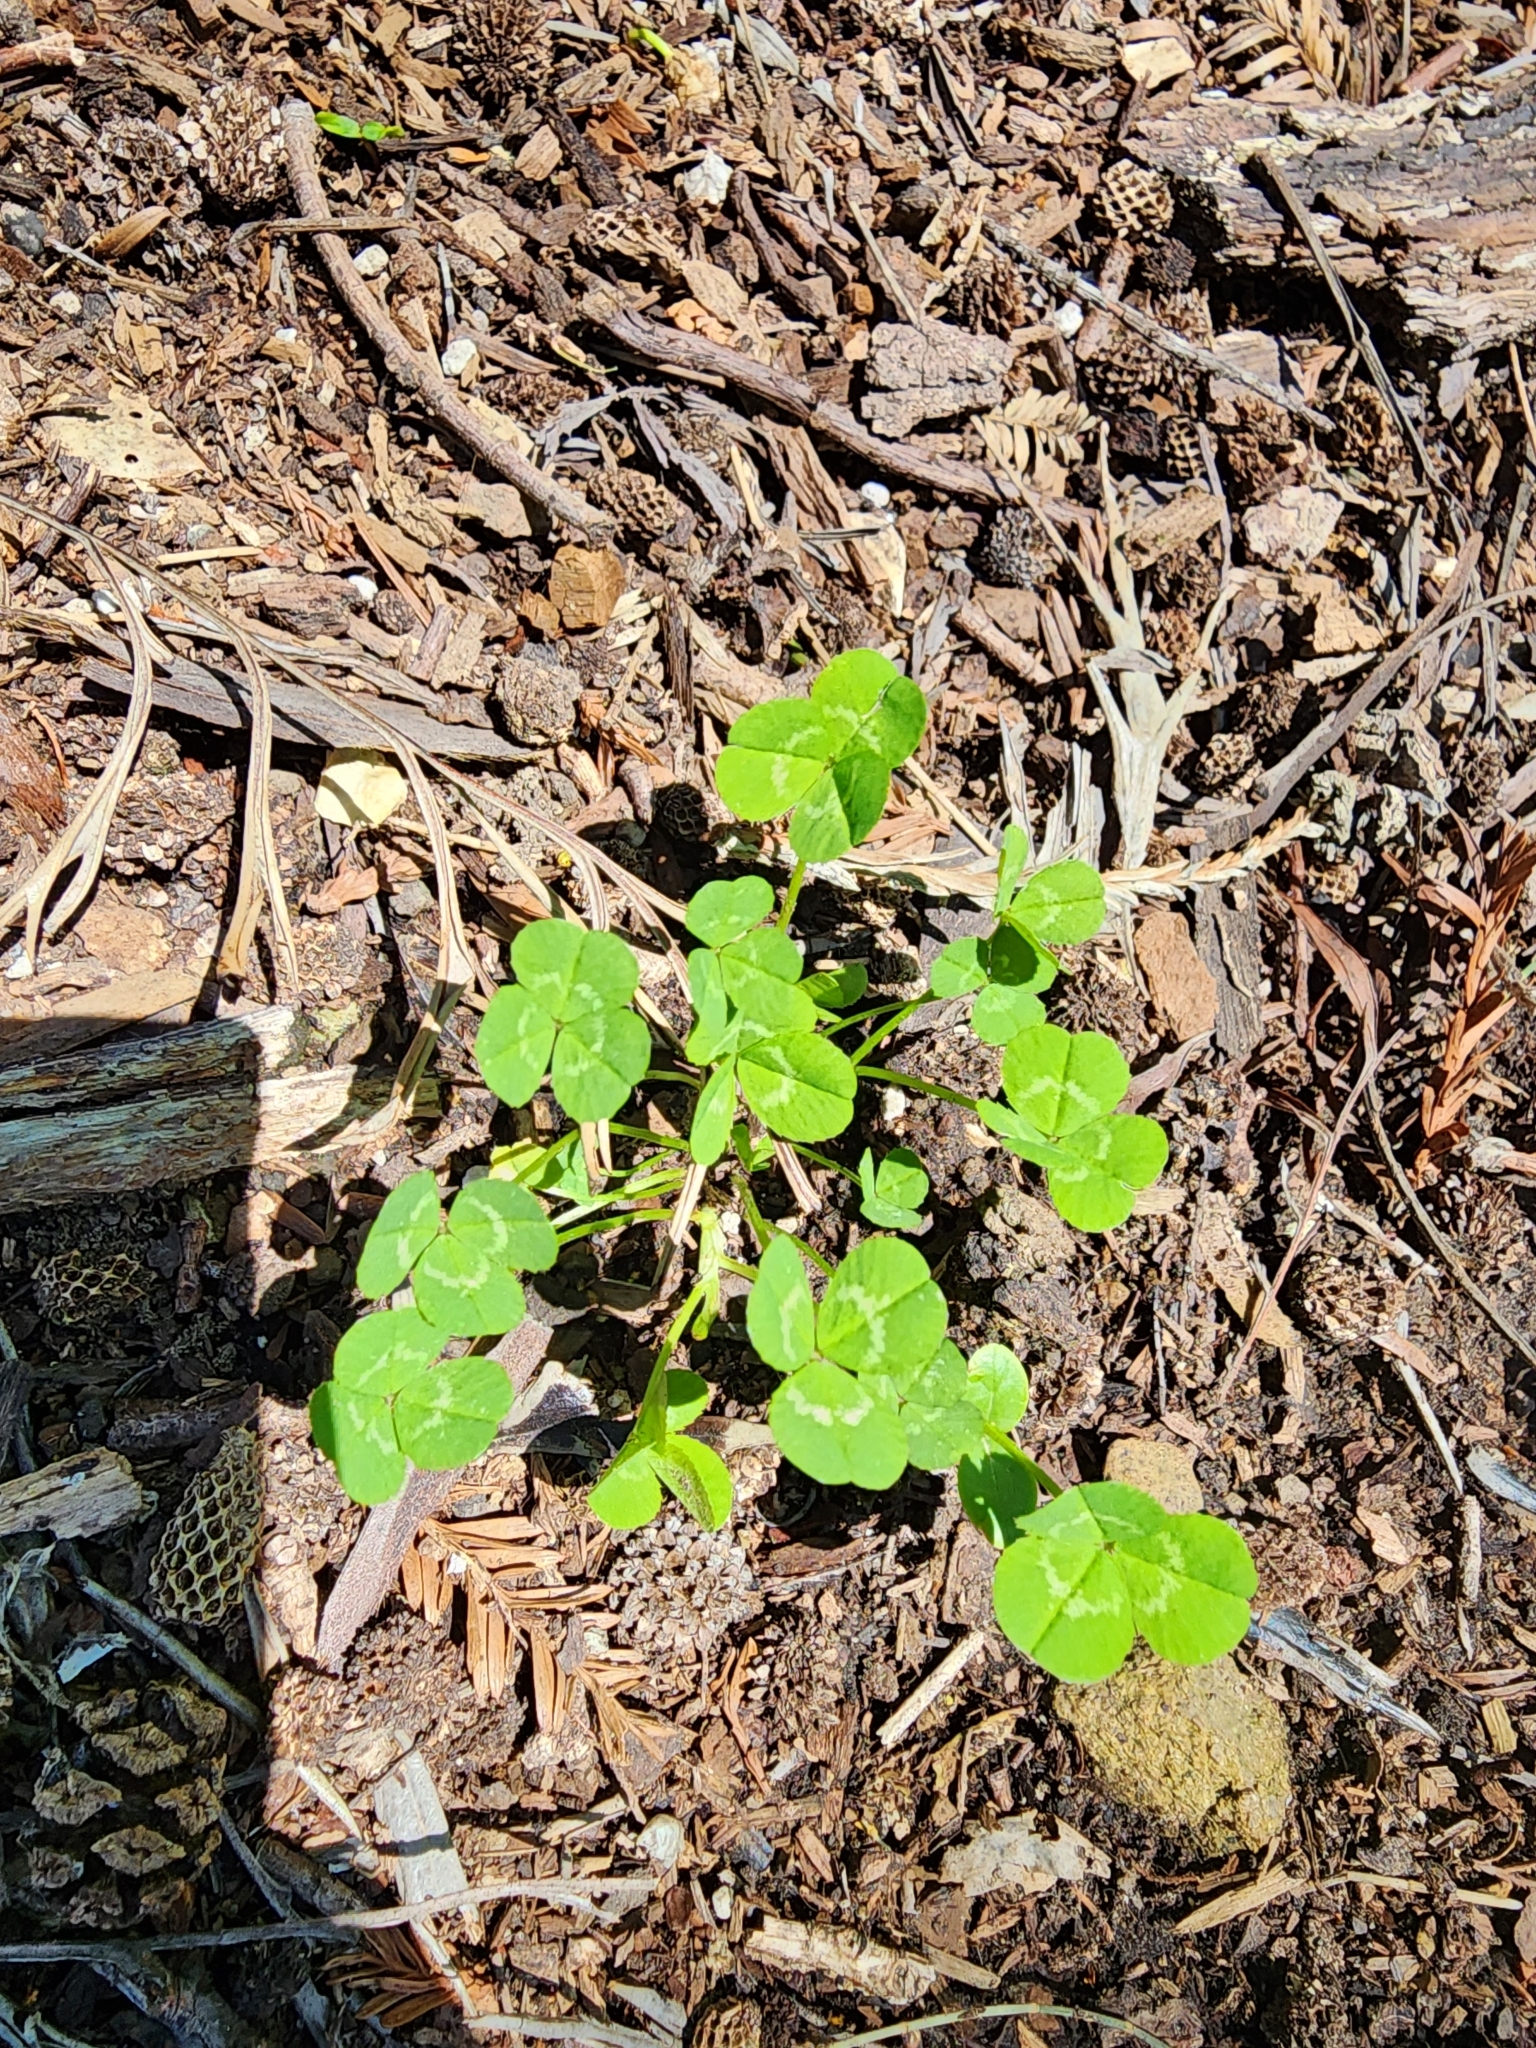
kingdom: Plantae
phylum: Tracheophyta
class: Magnoliopsida
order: Fabales
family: Fabaceae
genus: Trifolium
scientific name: Trifolium repens
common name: White clover
